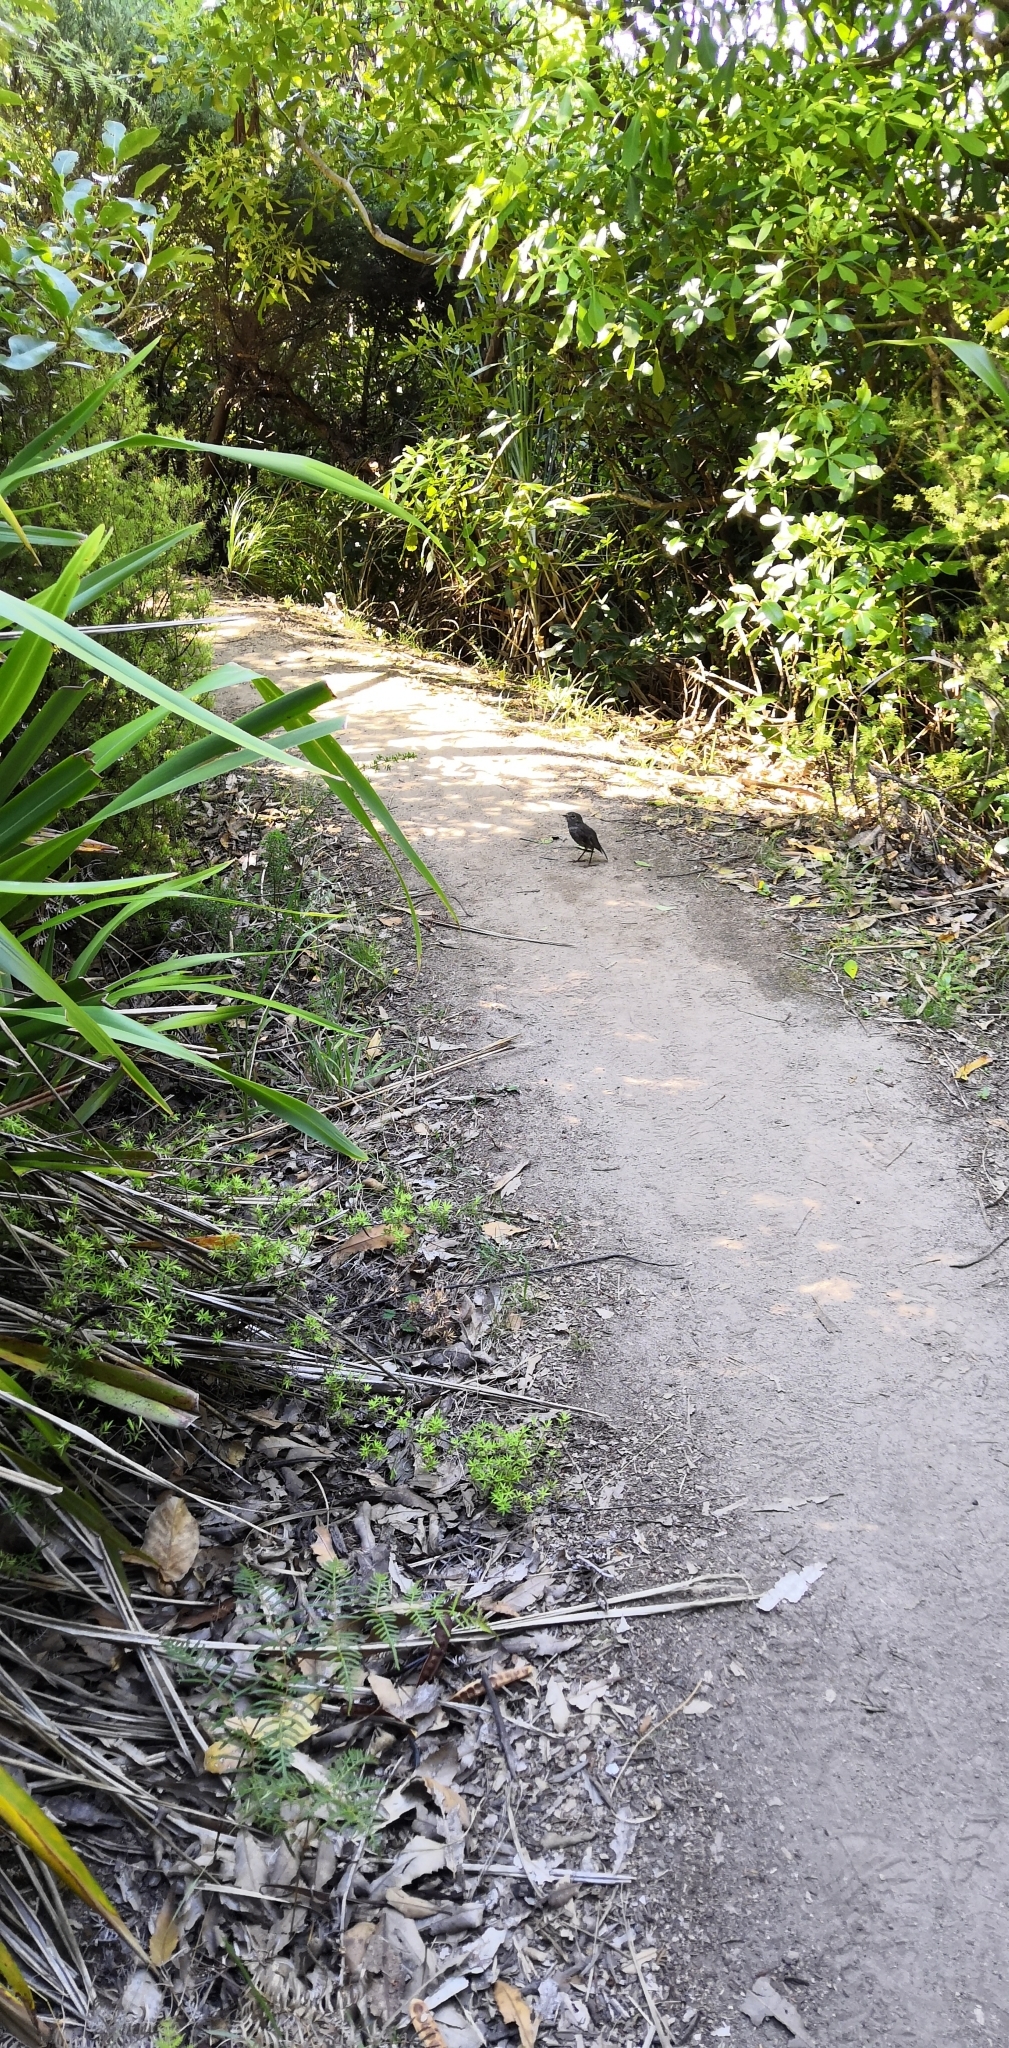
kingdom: Animalia
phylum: Chordata
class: Aves
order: Passeriformes
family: Petroicidae
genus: Petroica
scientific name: Petroica australis
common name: New zealand robin
